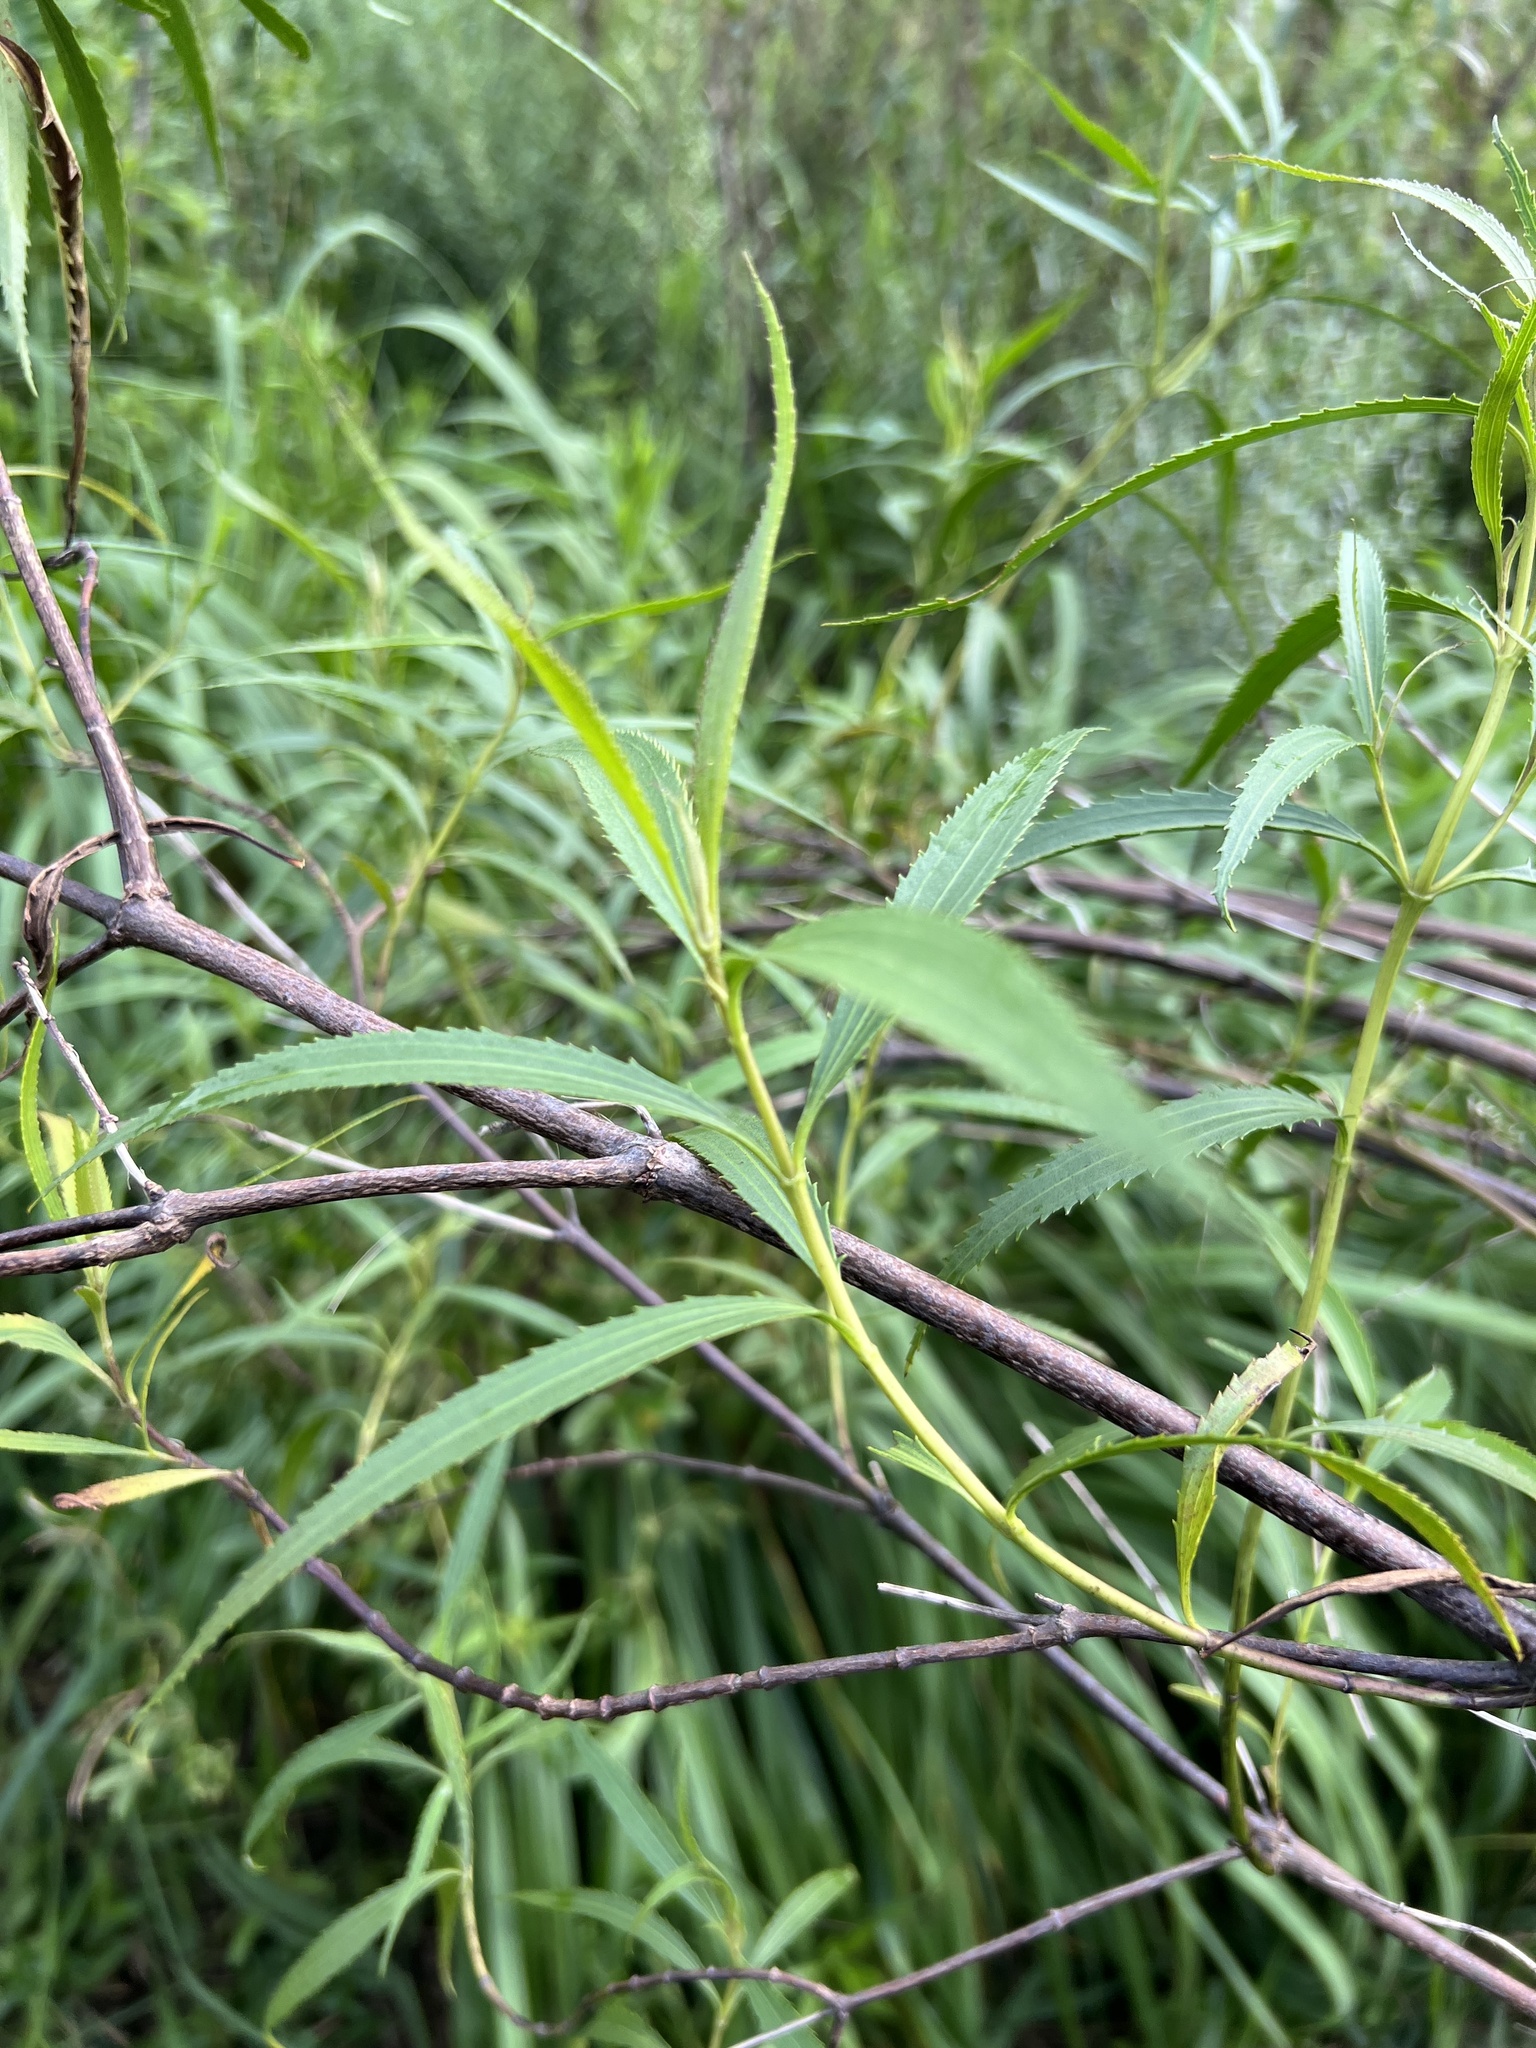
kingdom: Plantae
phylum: Tracheophyta
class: Magnoliopsida
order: Asterales
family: Asteraceae
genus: Grazielia
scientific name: Grazielia serrata
